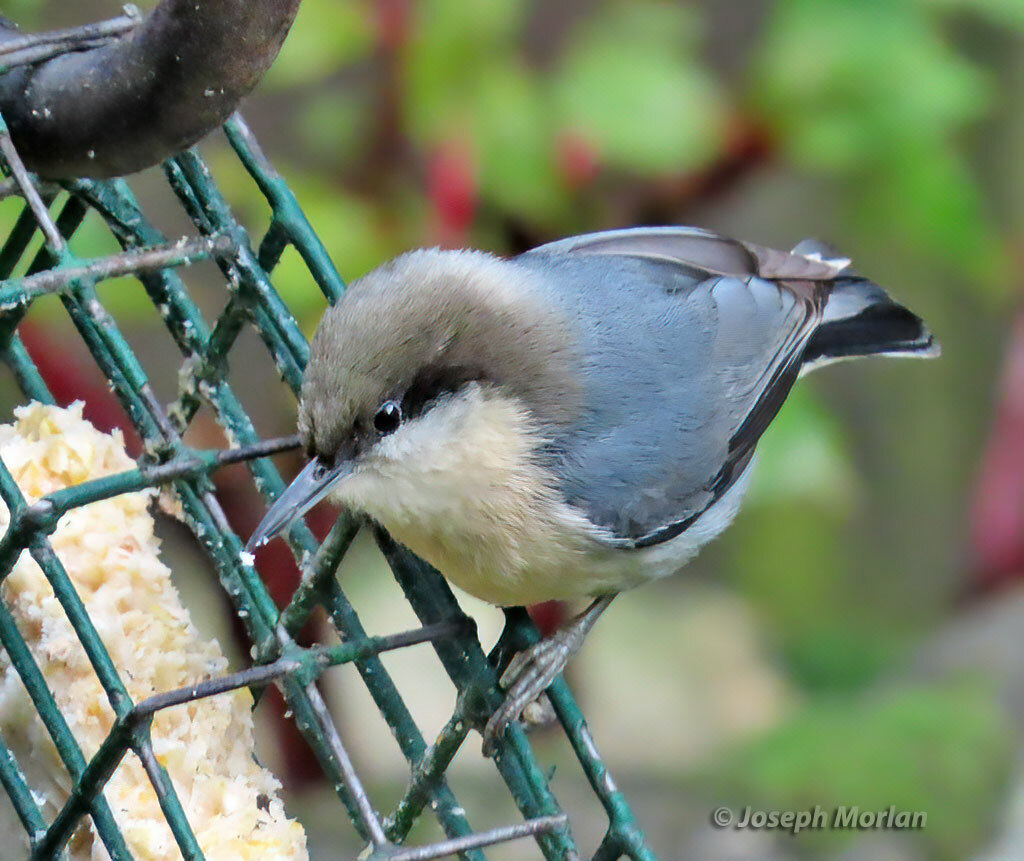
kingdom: Animalia
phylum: Chordata
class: Aves
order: Passeriformes
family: Sittidae
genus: Sitta
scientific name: Sitta pygmaea
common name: Pygmy nuthatch
